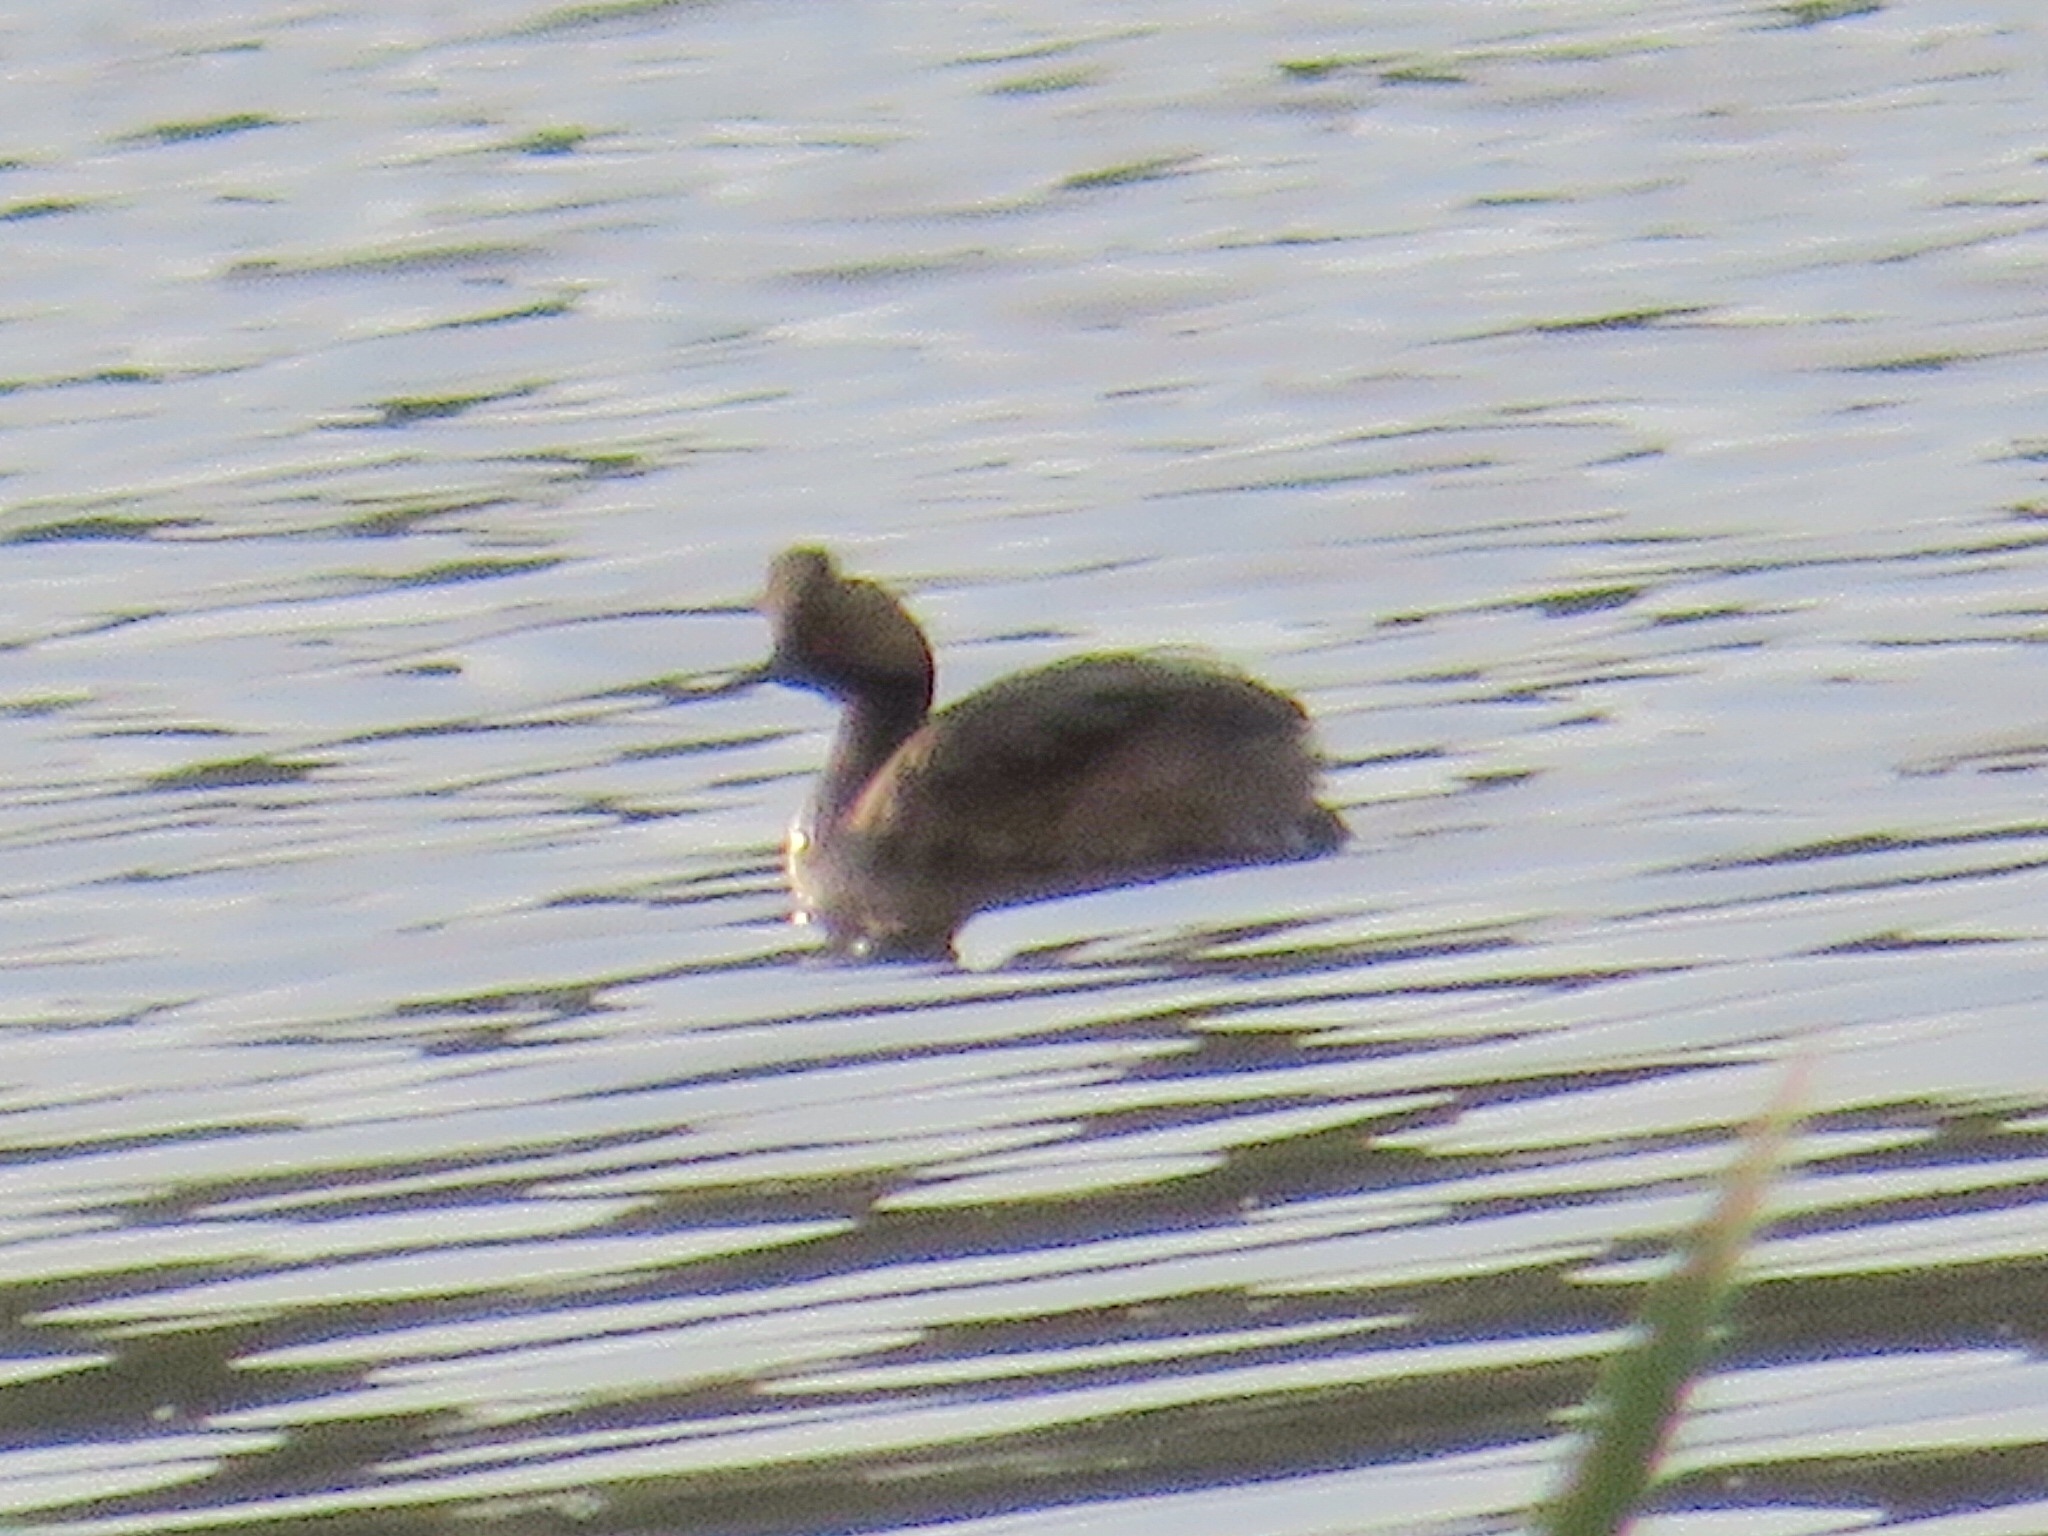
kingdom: Animalia
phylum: Chordata
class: Aves
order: Podicipediformes
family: Podicipedidae
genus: Podiceps
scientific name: Podiceps nigricollis
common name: Black-necked grebe
